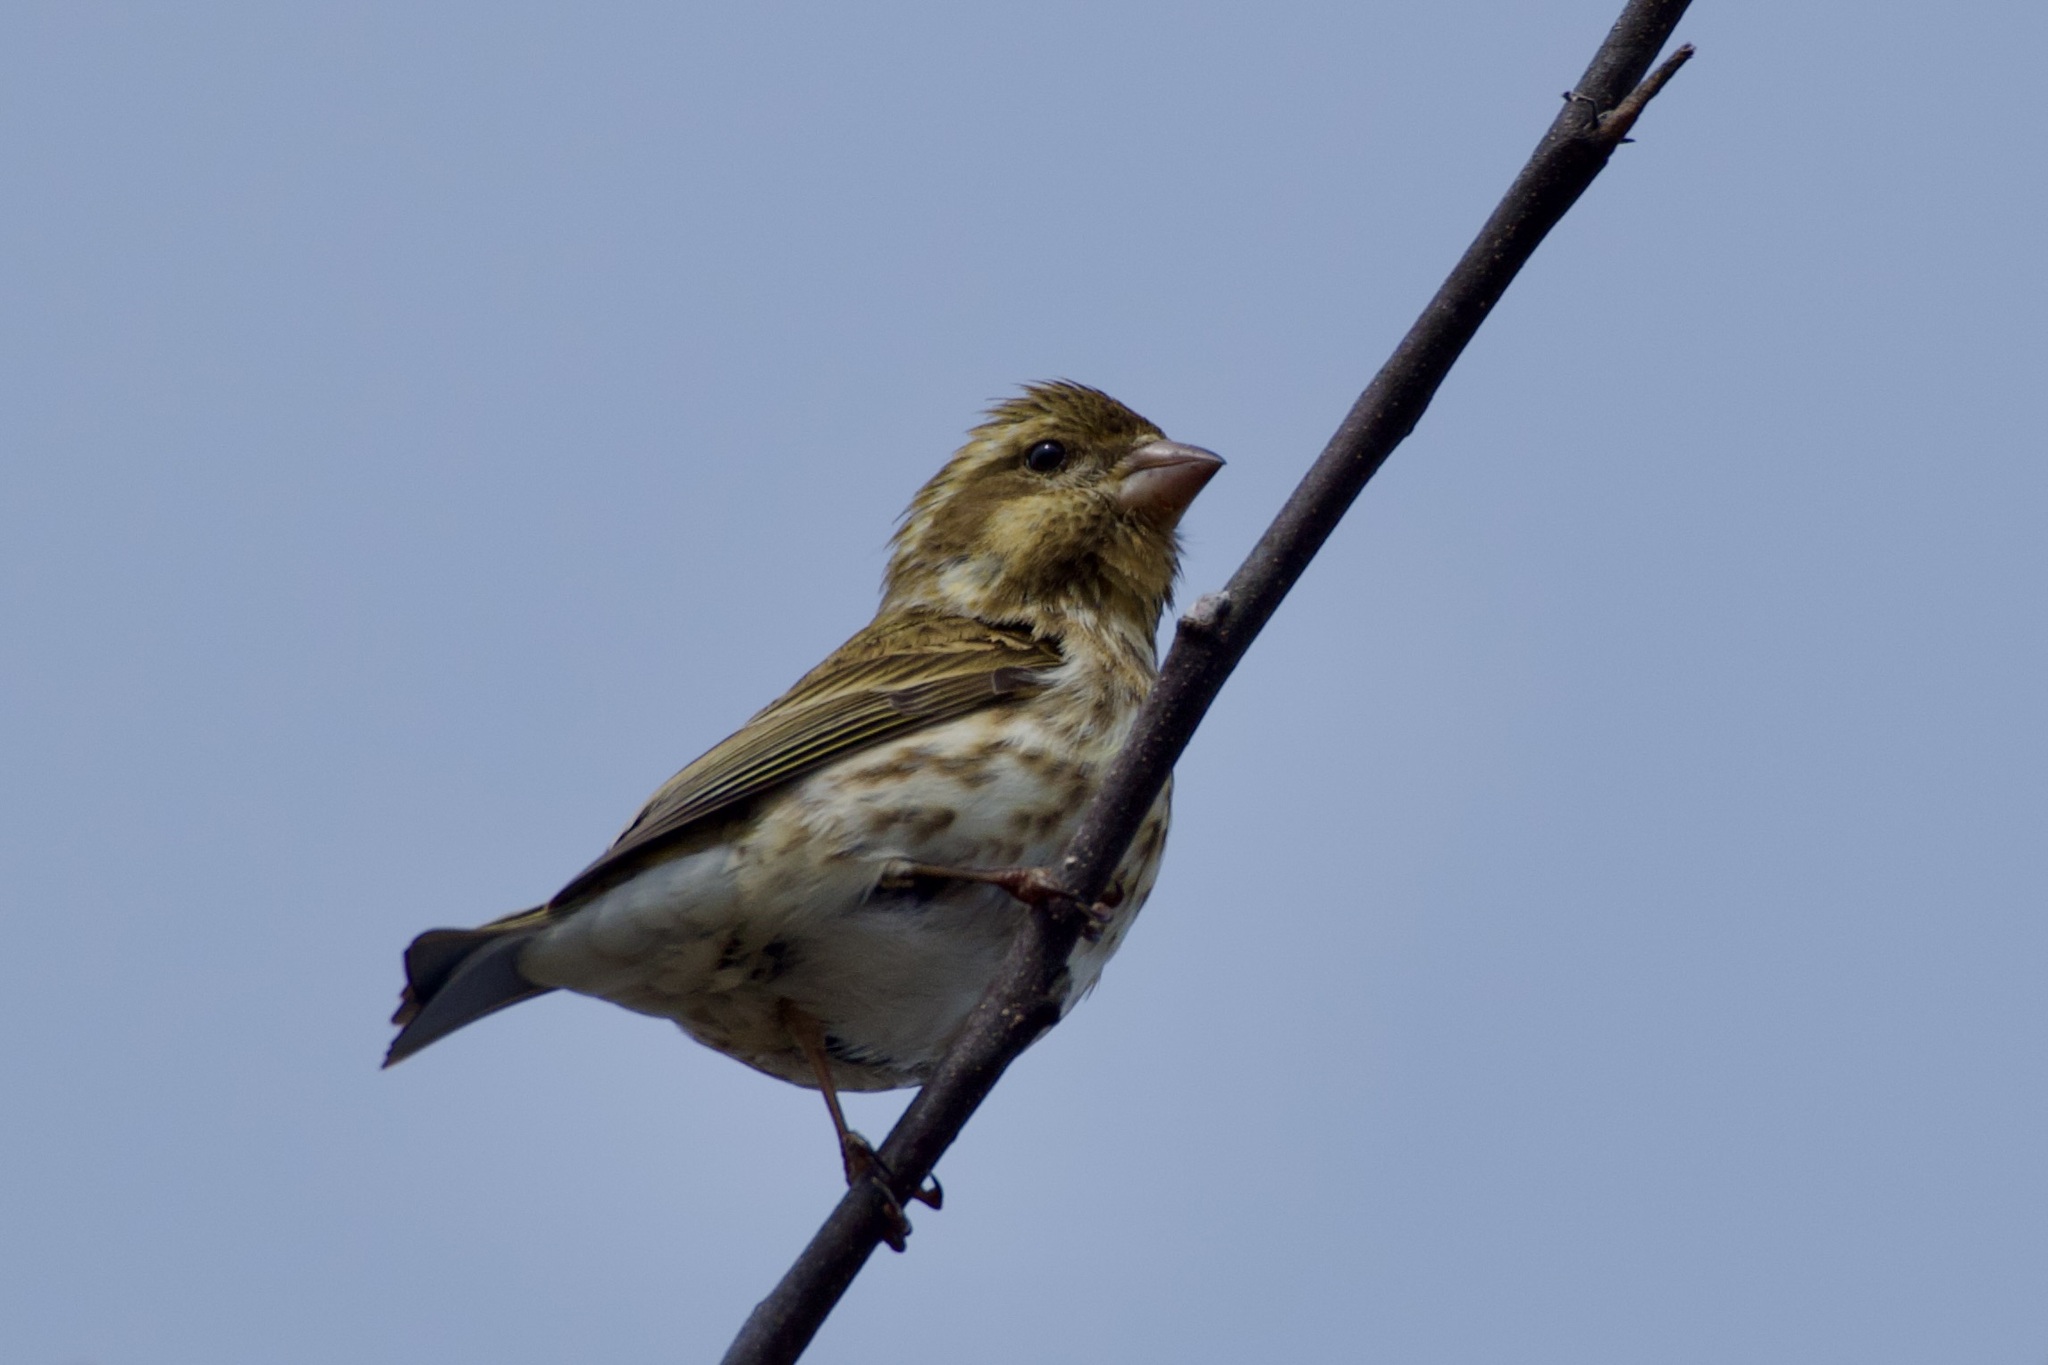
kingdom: Animalia
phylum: Chordata
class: Aves
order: Passeriformes
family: Fringillidae
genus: Haemorhous
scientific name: Haemorhous purpureus
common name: Purple finch
